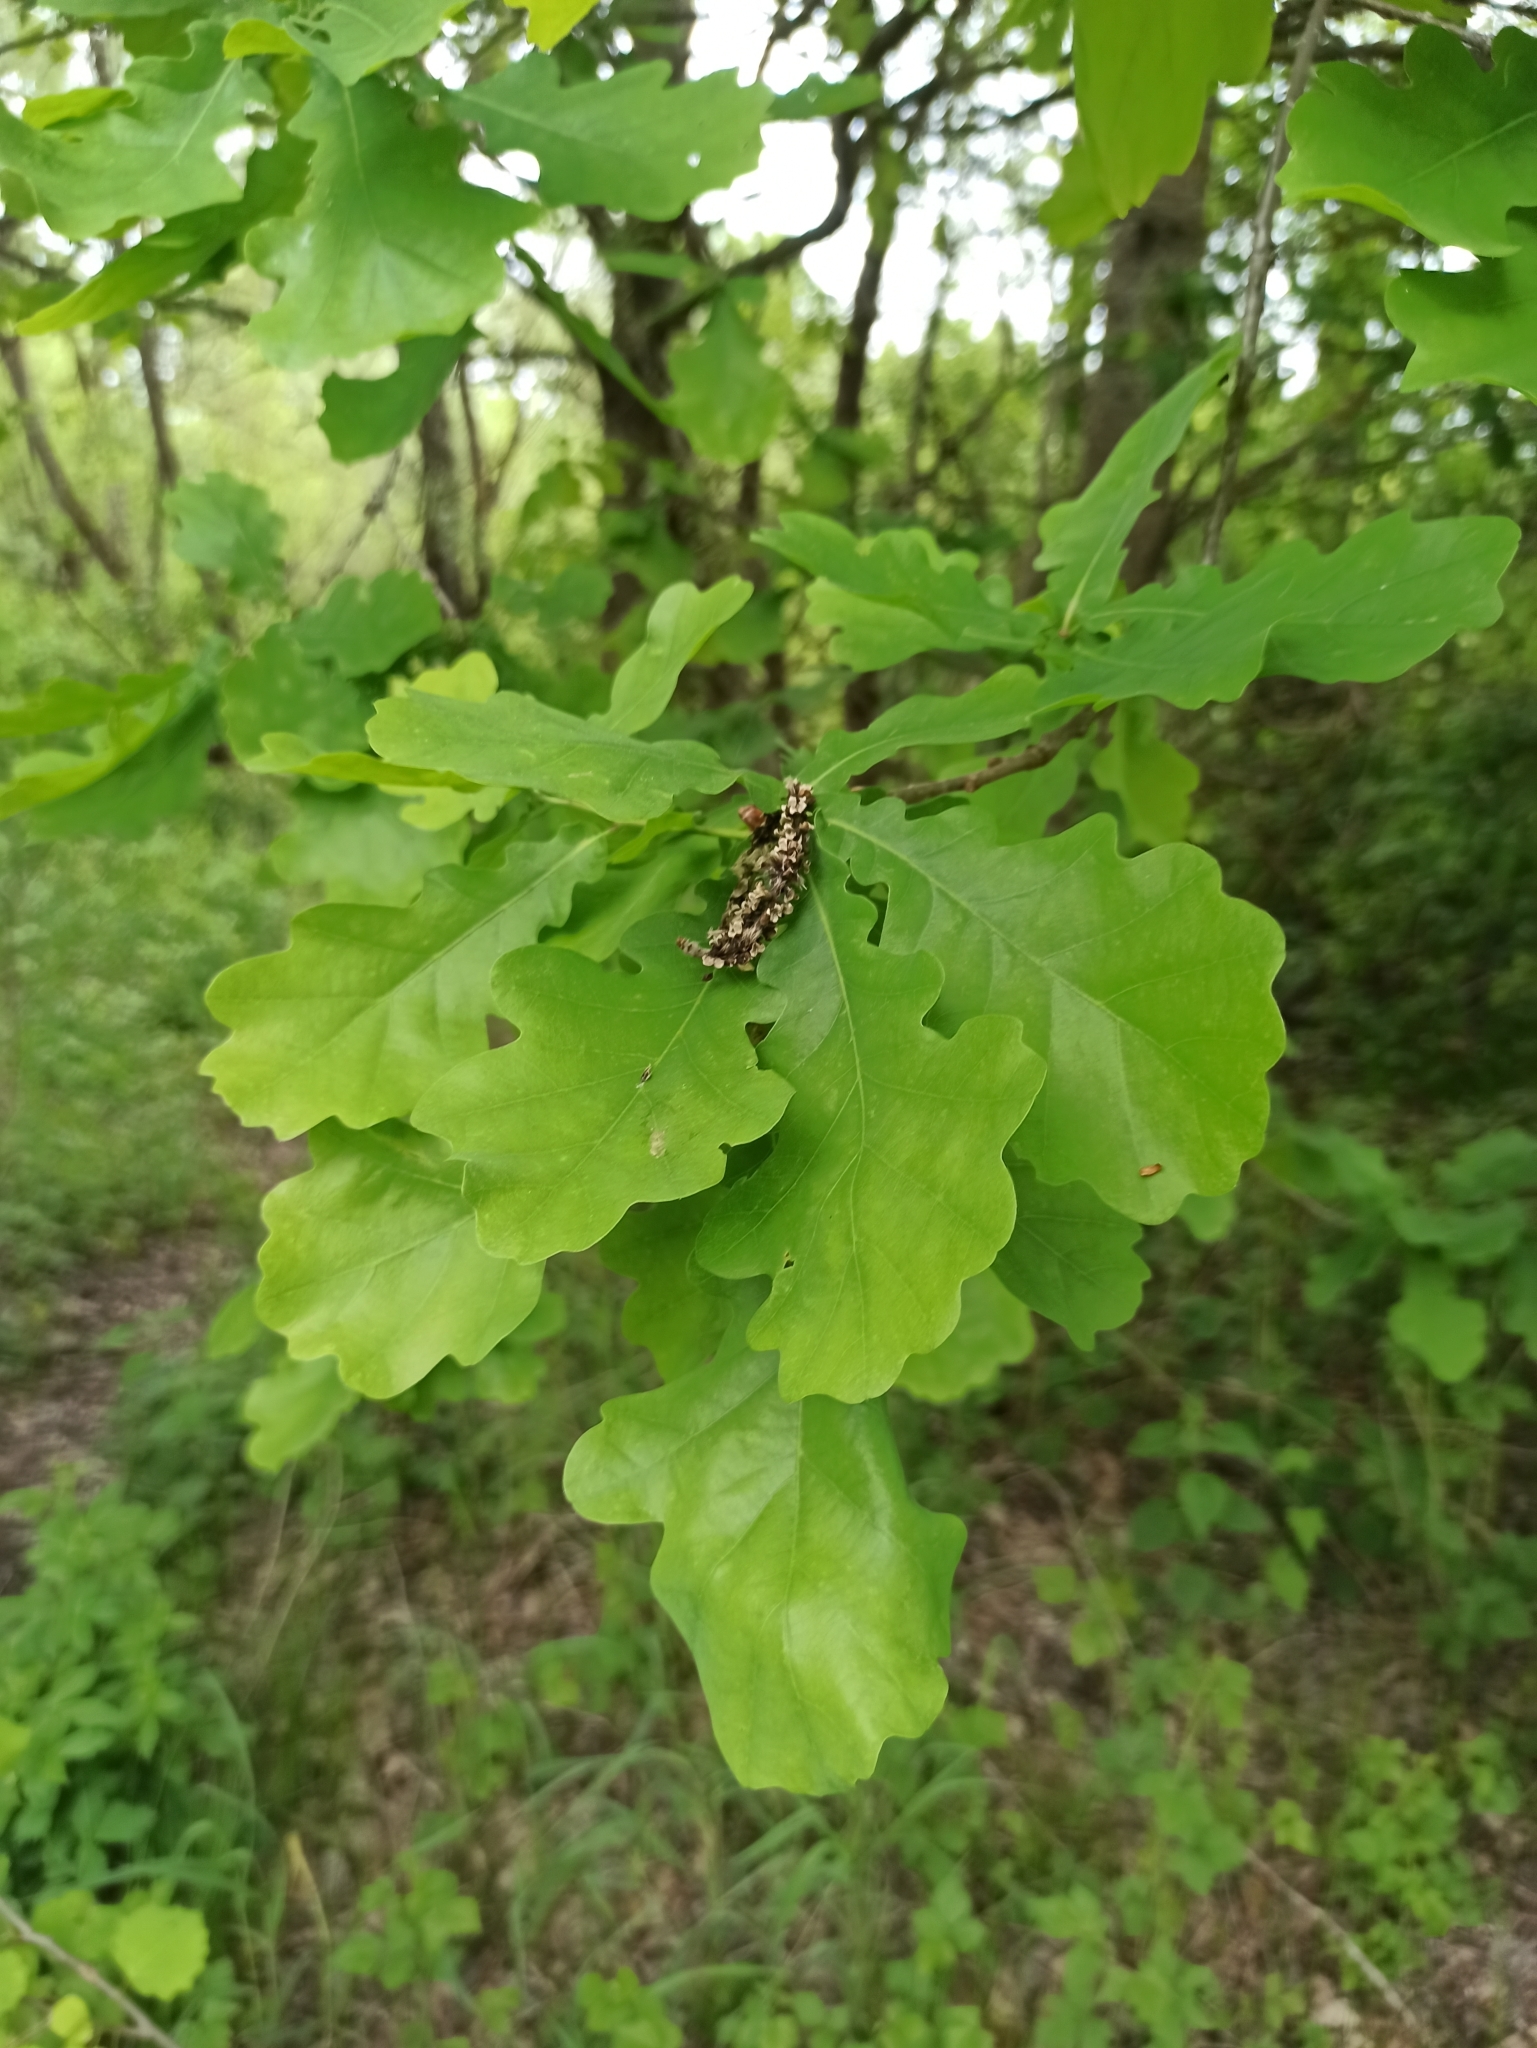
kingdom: Plantae
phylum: Tracheophyta
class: Magnoliopsida
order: Fagales
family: Fagaceae
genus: Quercus
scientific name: Quercus robur
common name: Pedunculate oak
